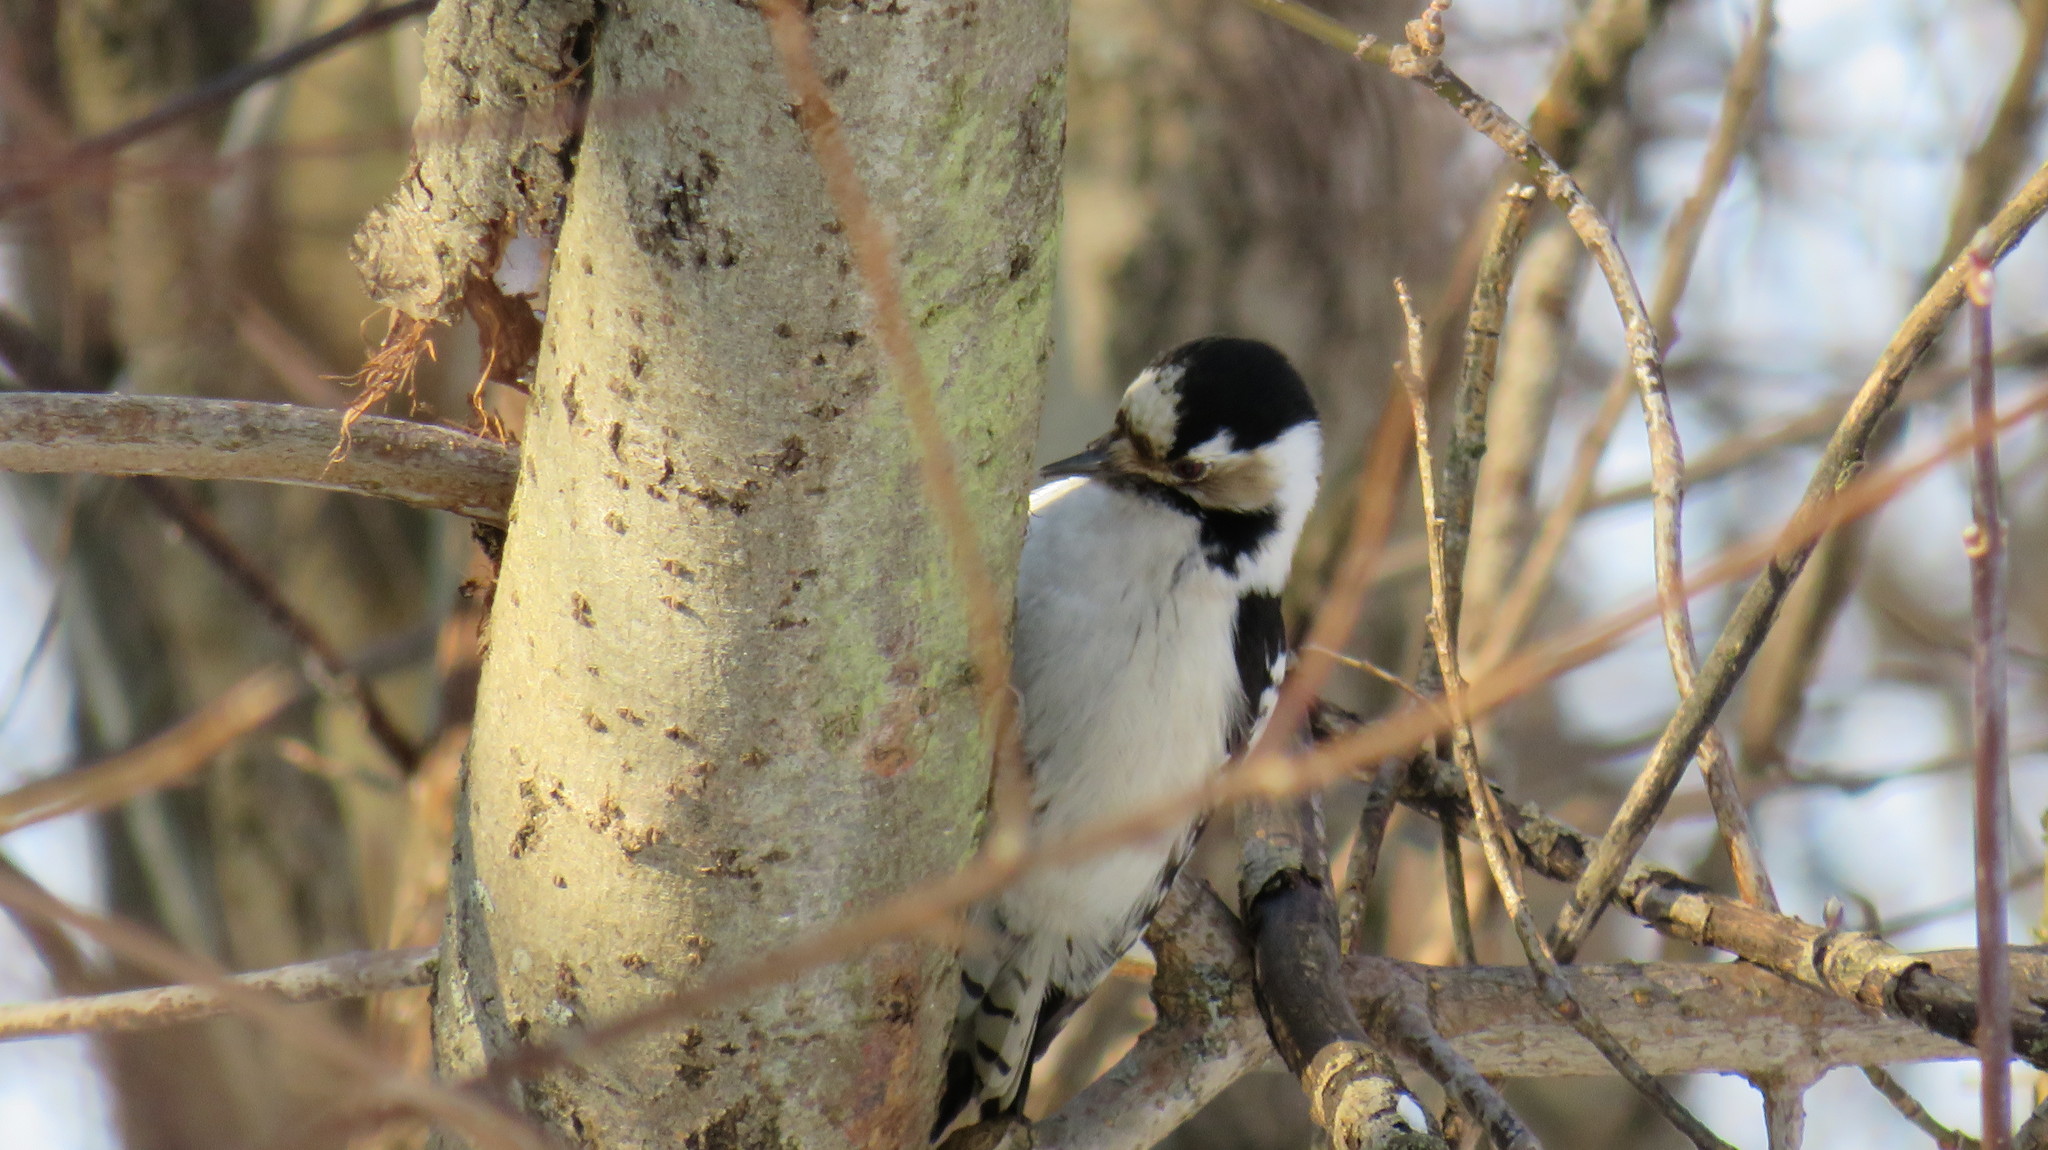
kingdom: Animalia
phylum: Chordata
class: Aves
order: Piciformes
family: Picidae
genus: Dryobates
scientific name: Dryobates minor
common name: Lesser spotted woodpecker
